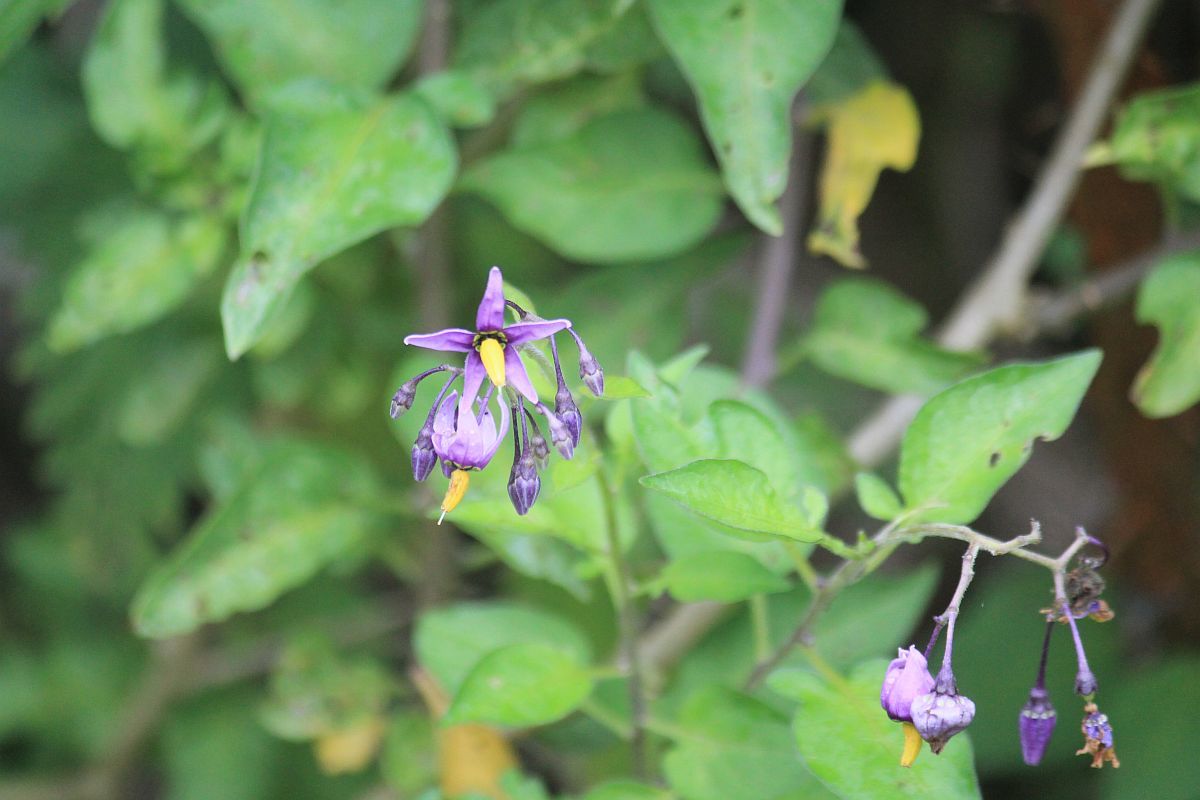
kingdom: Plantae
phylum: Tracheophyta
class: Magnoliopsida
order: Solanales
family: Solanaceae
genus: Solanum
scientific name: Solanum dulcamara
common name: Climbing nightshade
